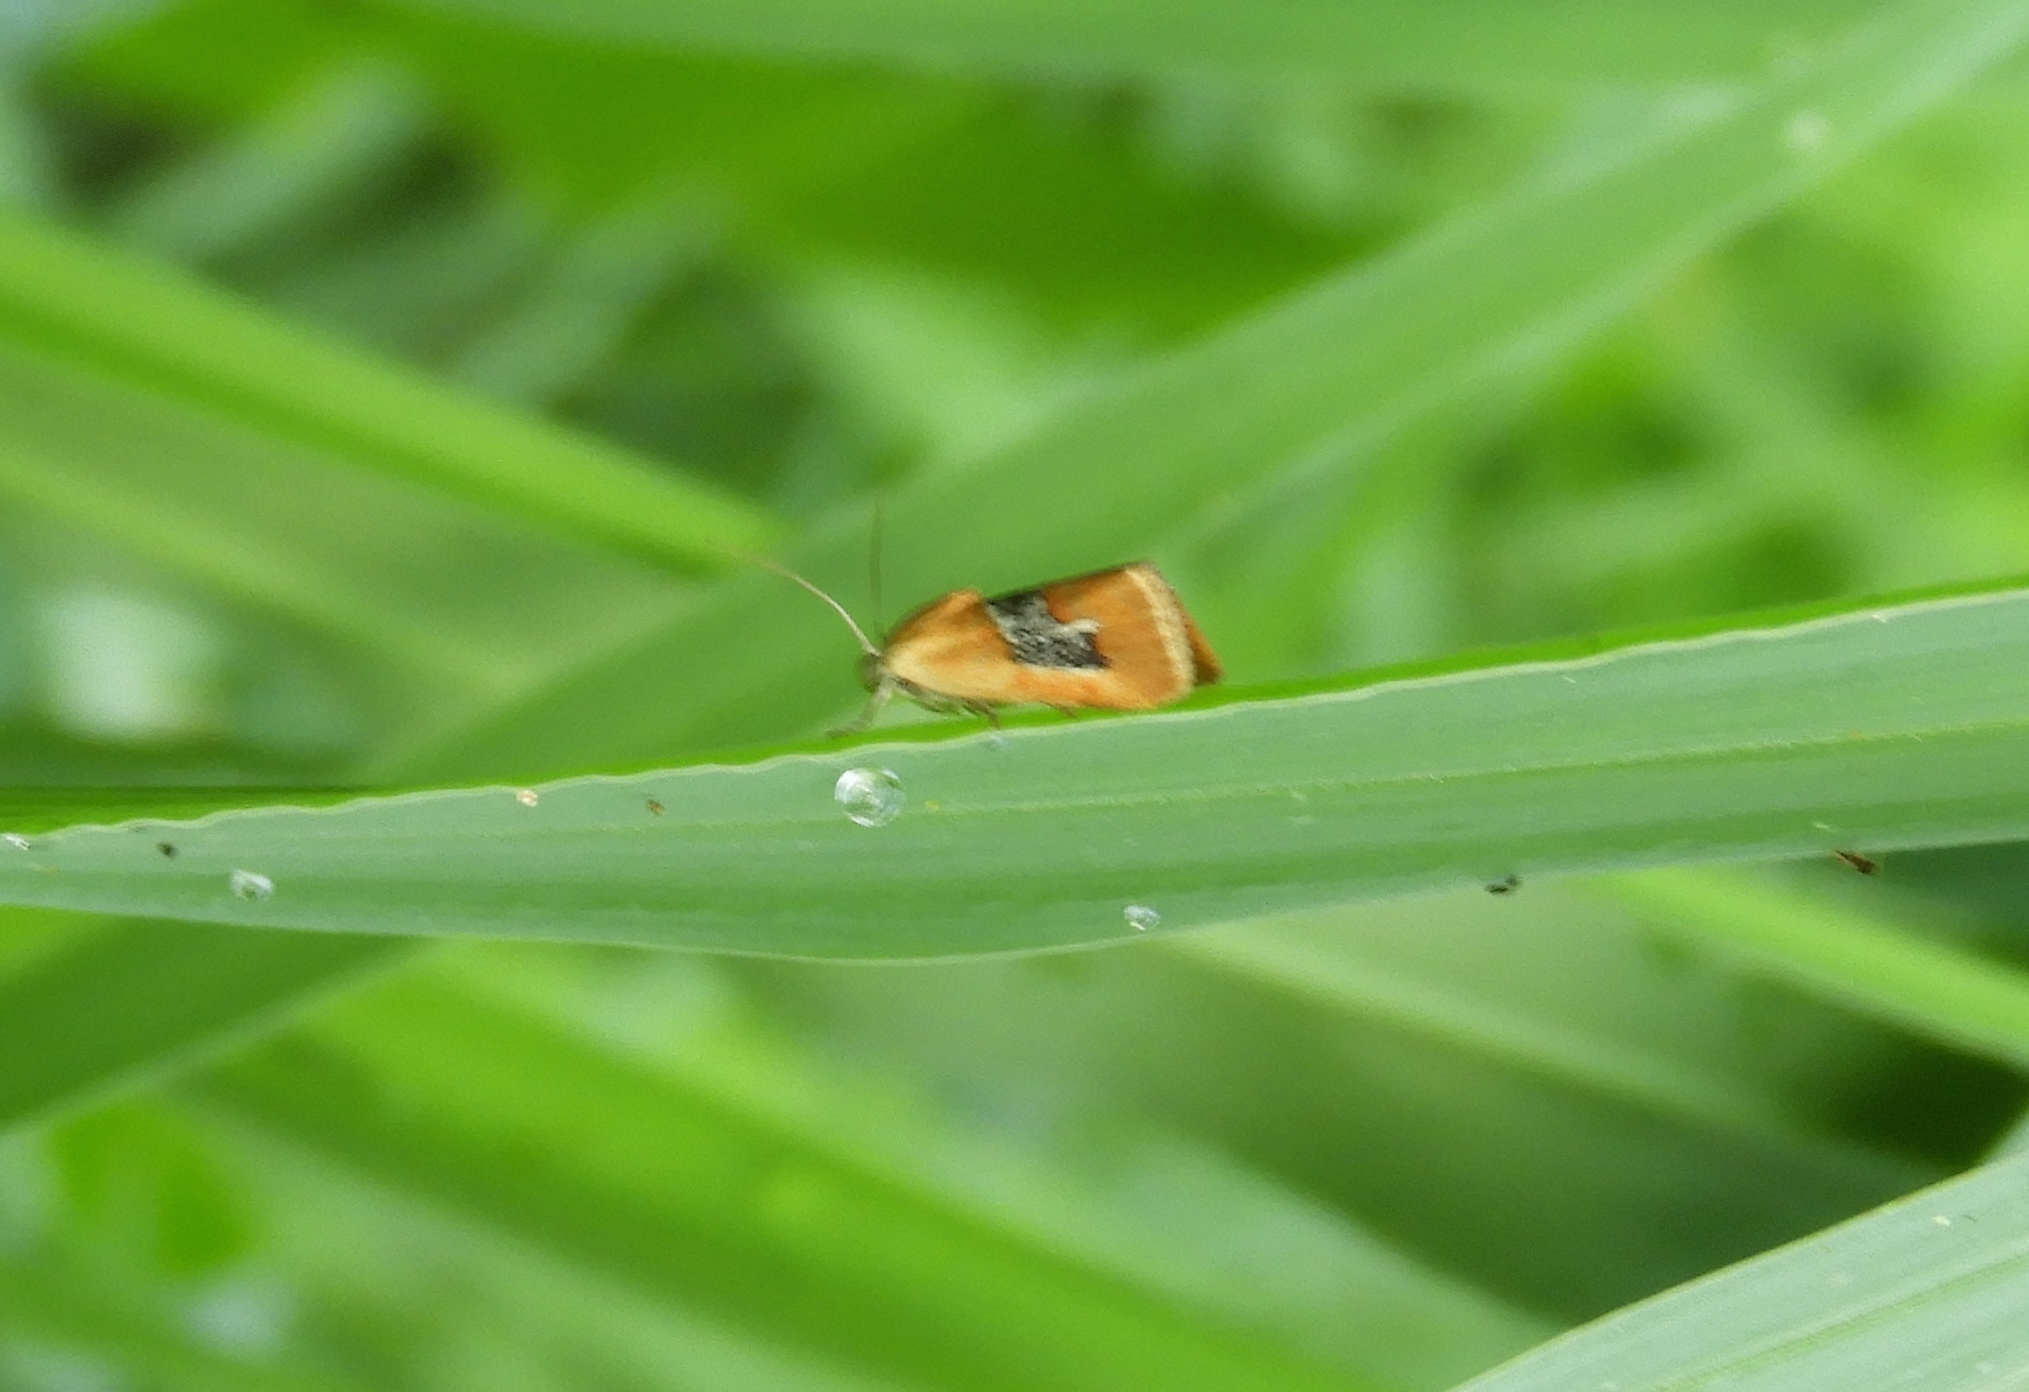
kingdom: Animalia
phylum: Arthropoda
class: Insecta
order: Lepidoptera
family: Noctuidae
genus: Ponometia
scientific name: Ponometia venustula
